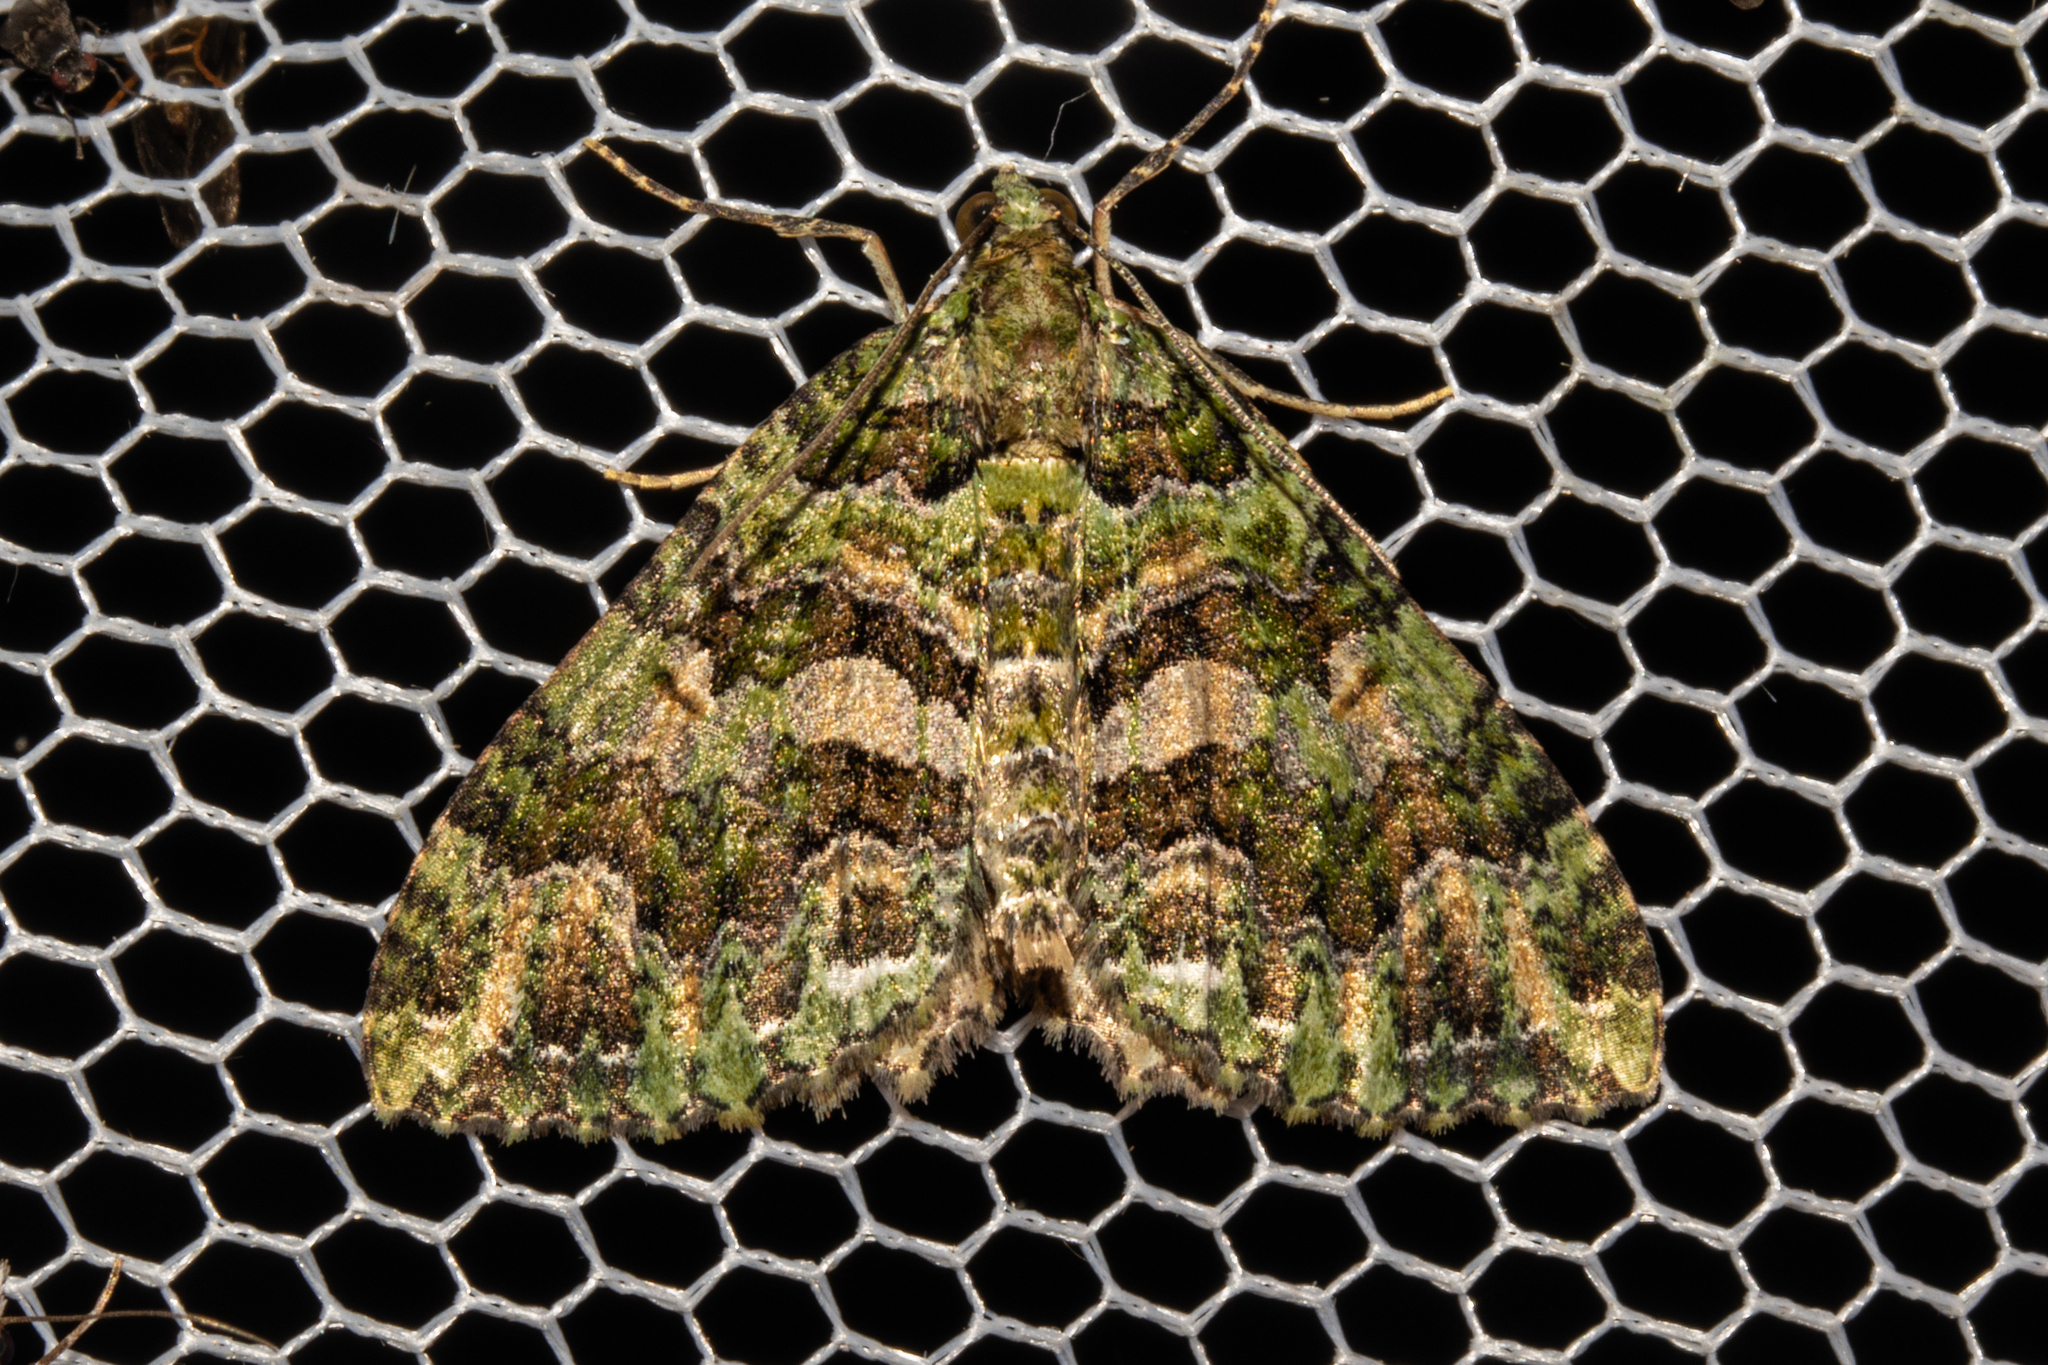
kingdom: Animalia
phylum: Arthropoda
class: Insecta
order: Lepidoptera
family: Geometridae
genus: Austrocidaria
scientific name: Austrocidaria similata
